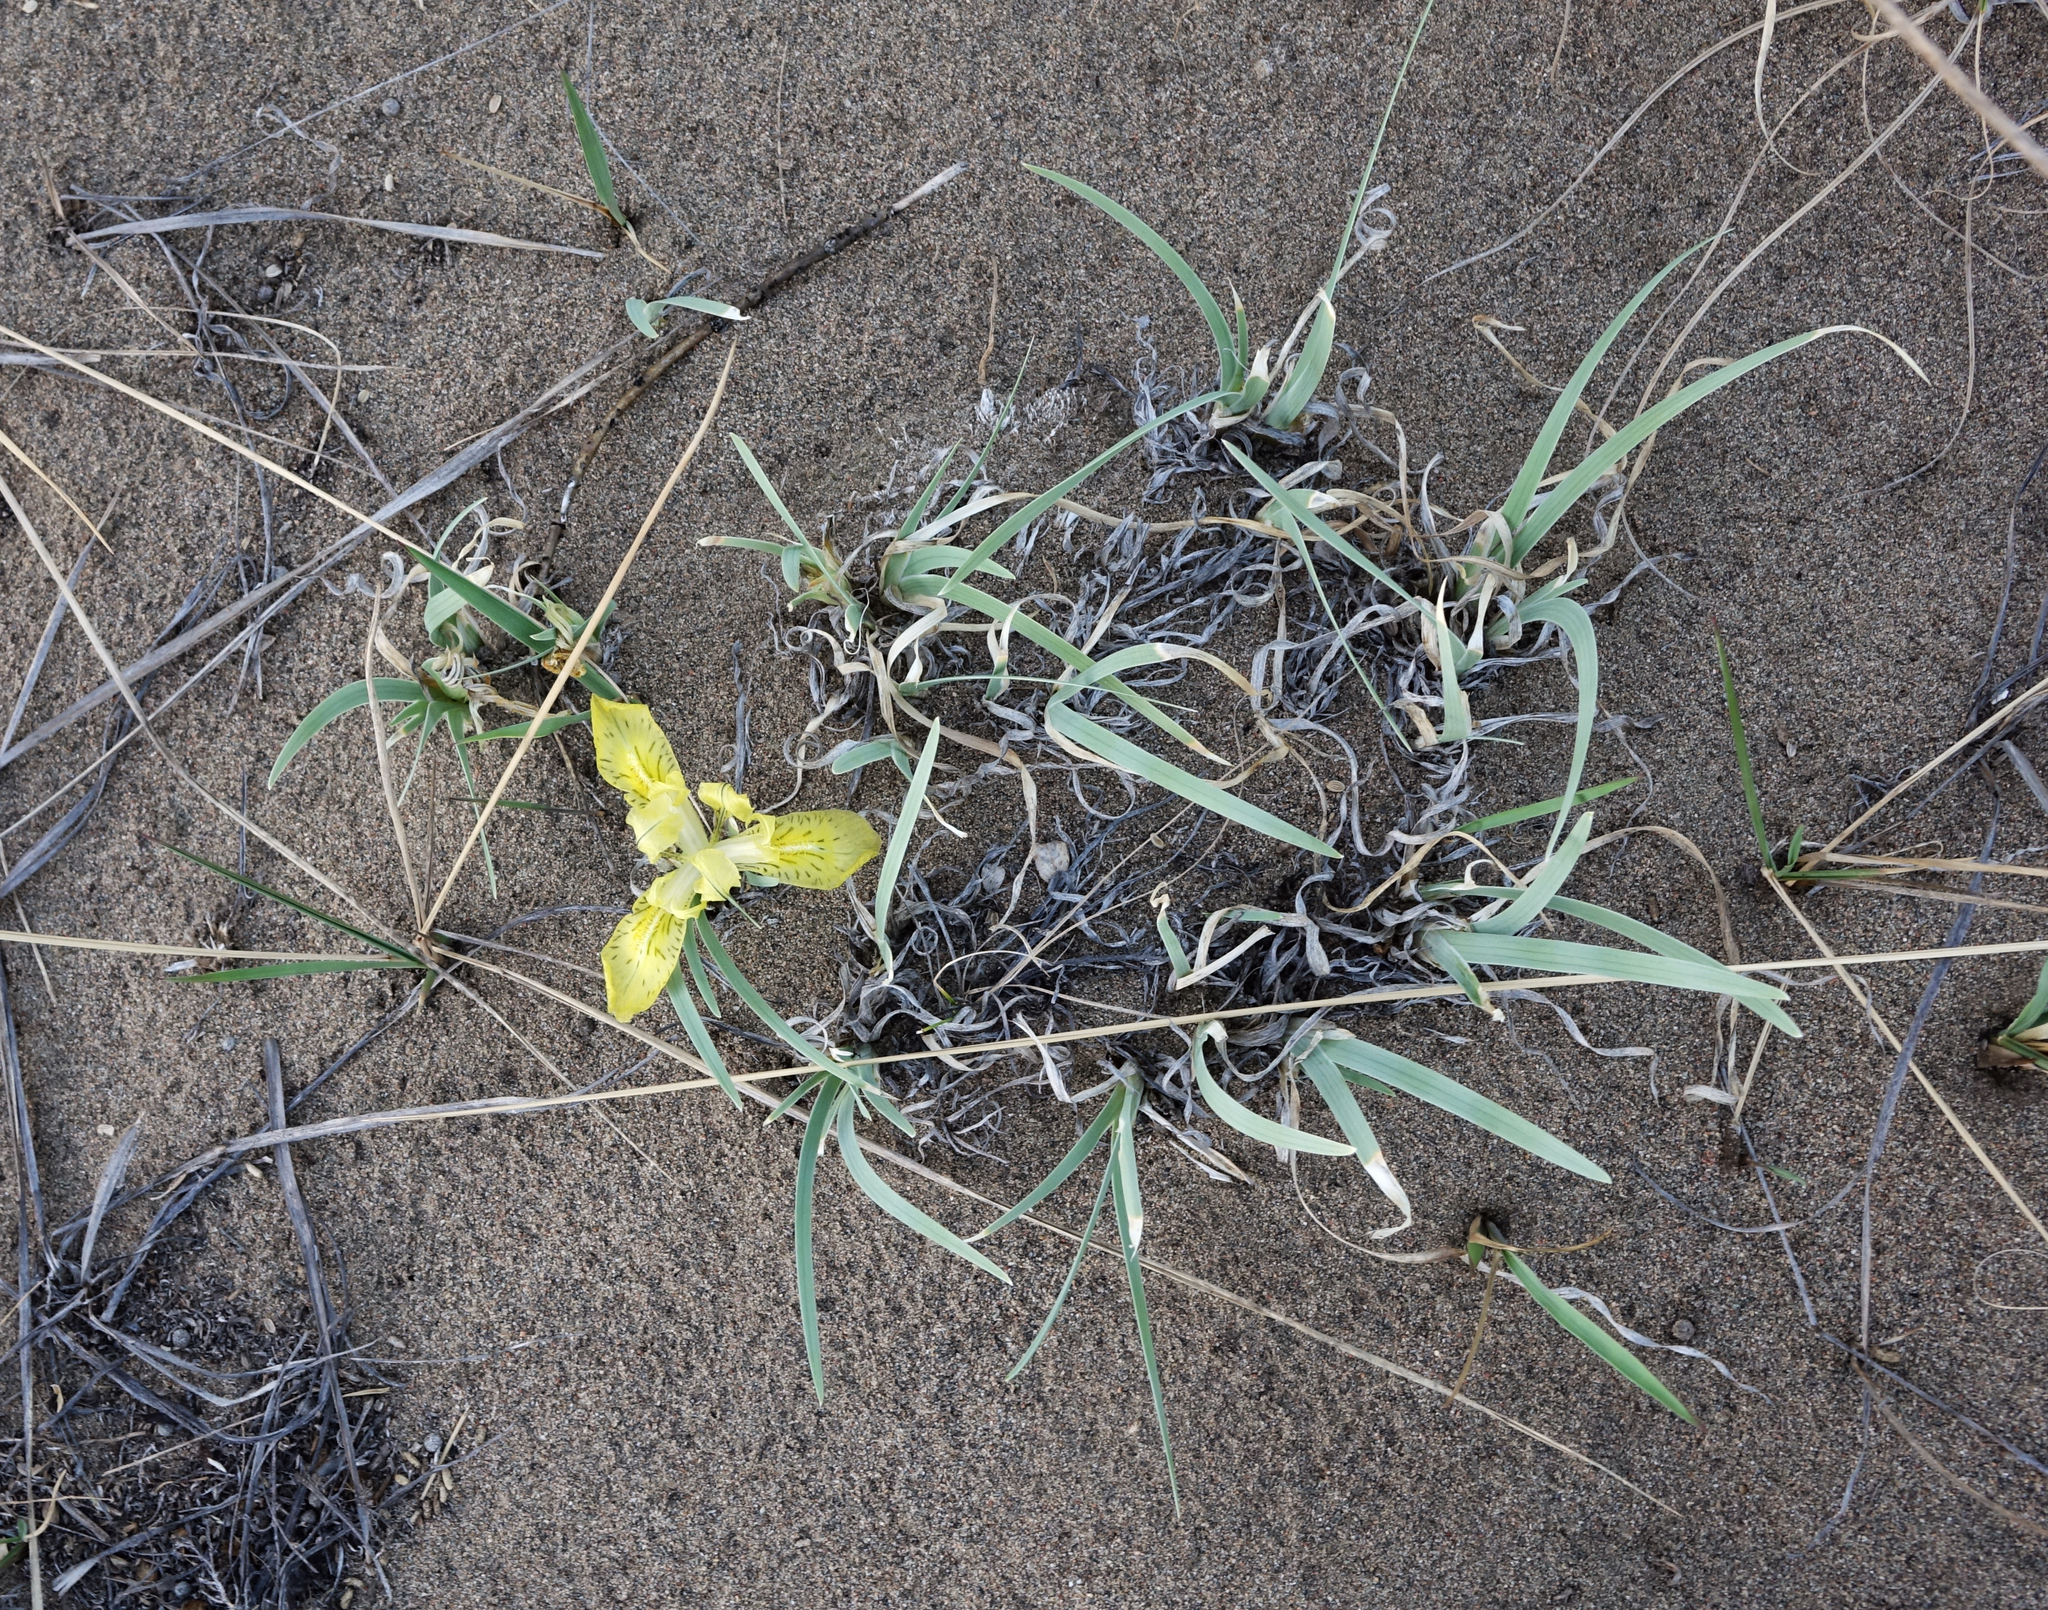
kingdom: Plantae
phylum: Tracheophyta
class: Liliopsida
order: Asparagales
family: Iridaceae
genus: Iris
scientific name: Iris potaninii
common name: Curl-sheath iris
